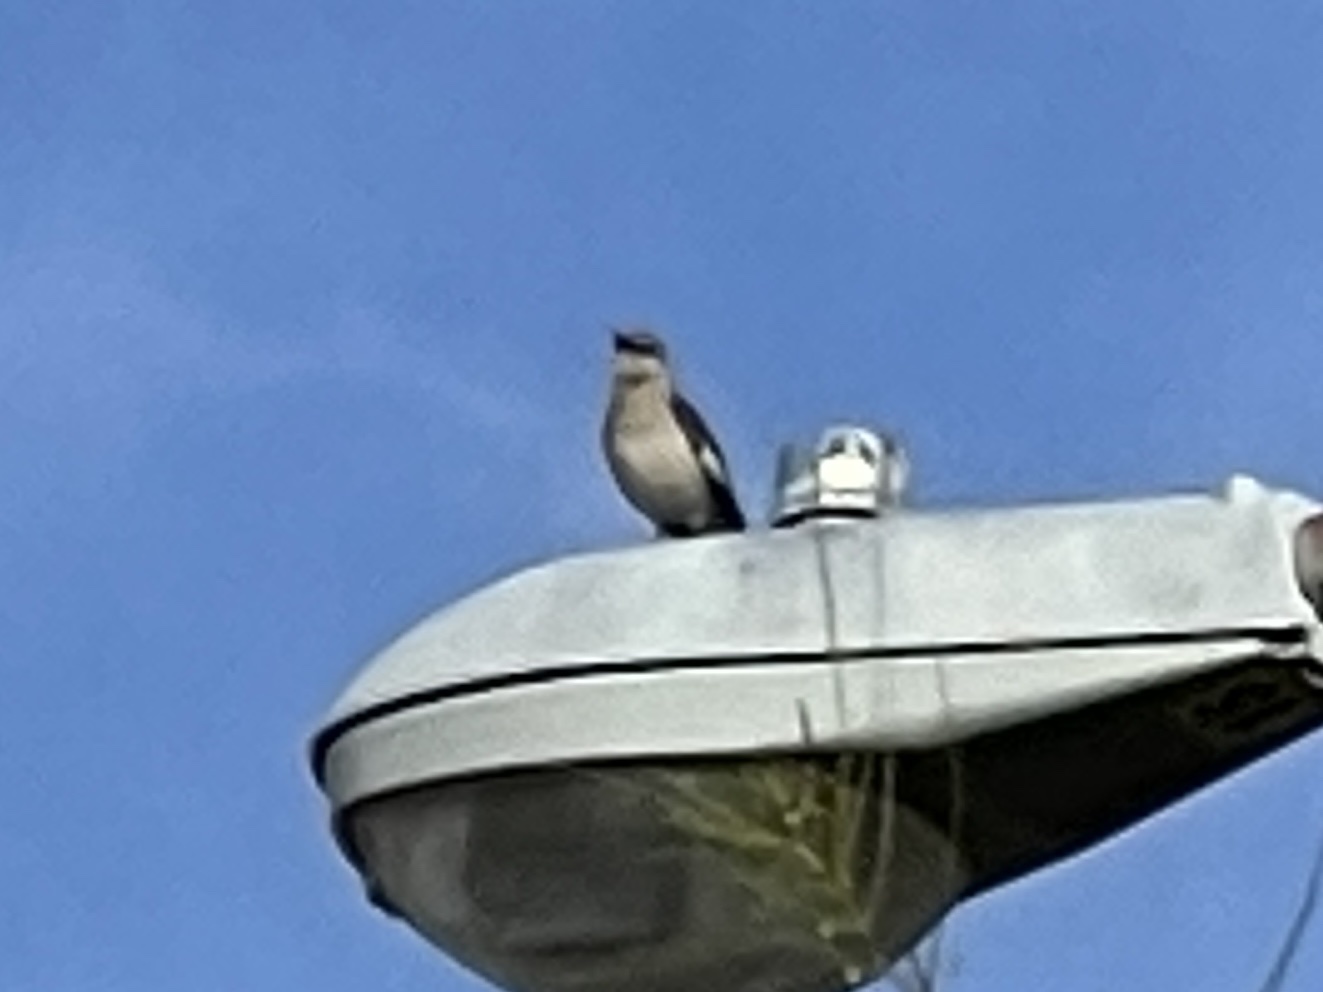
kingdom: Animalia
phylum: Chordata
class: Aves
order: Passeriformes
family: Mimidae
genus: Mimus
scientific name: Mimus polyglottos
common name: Northern mockingbird
